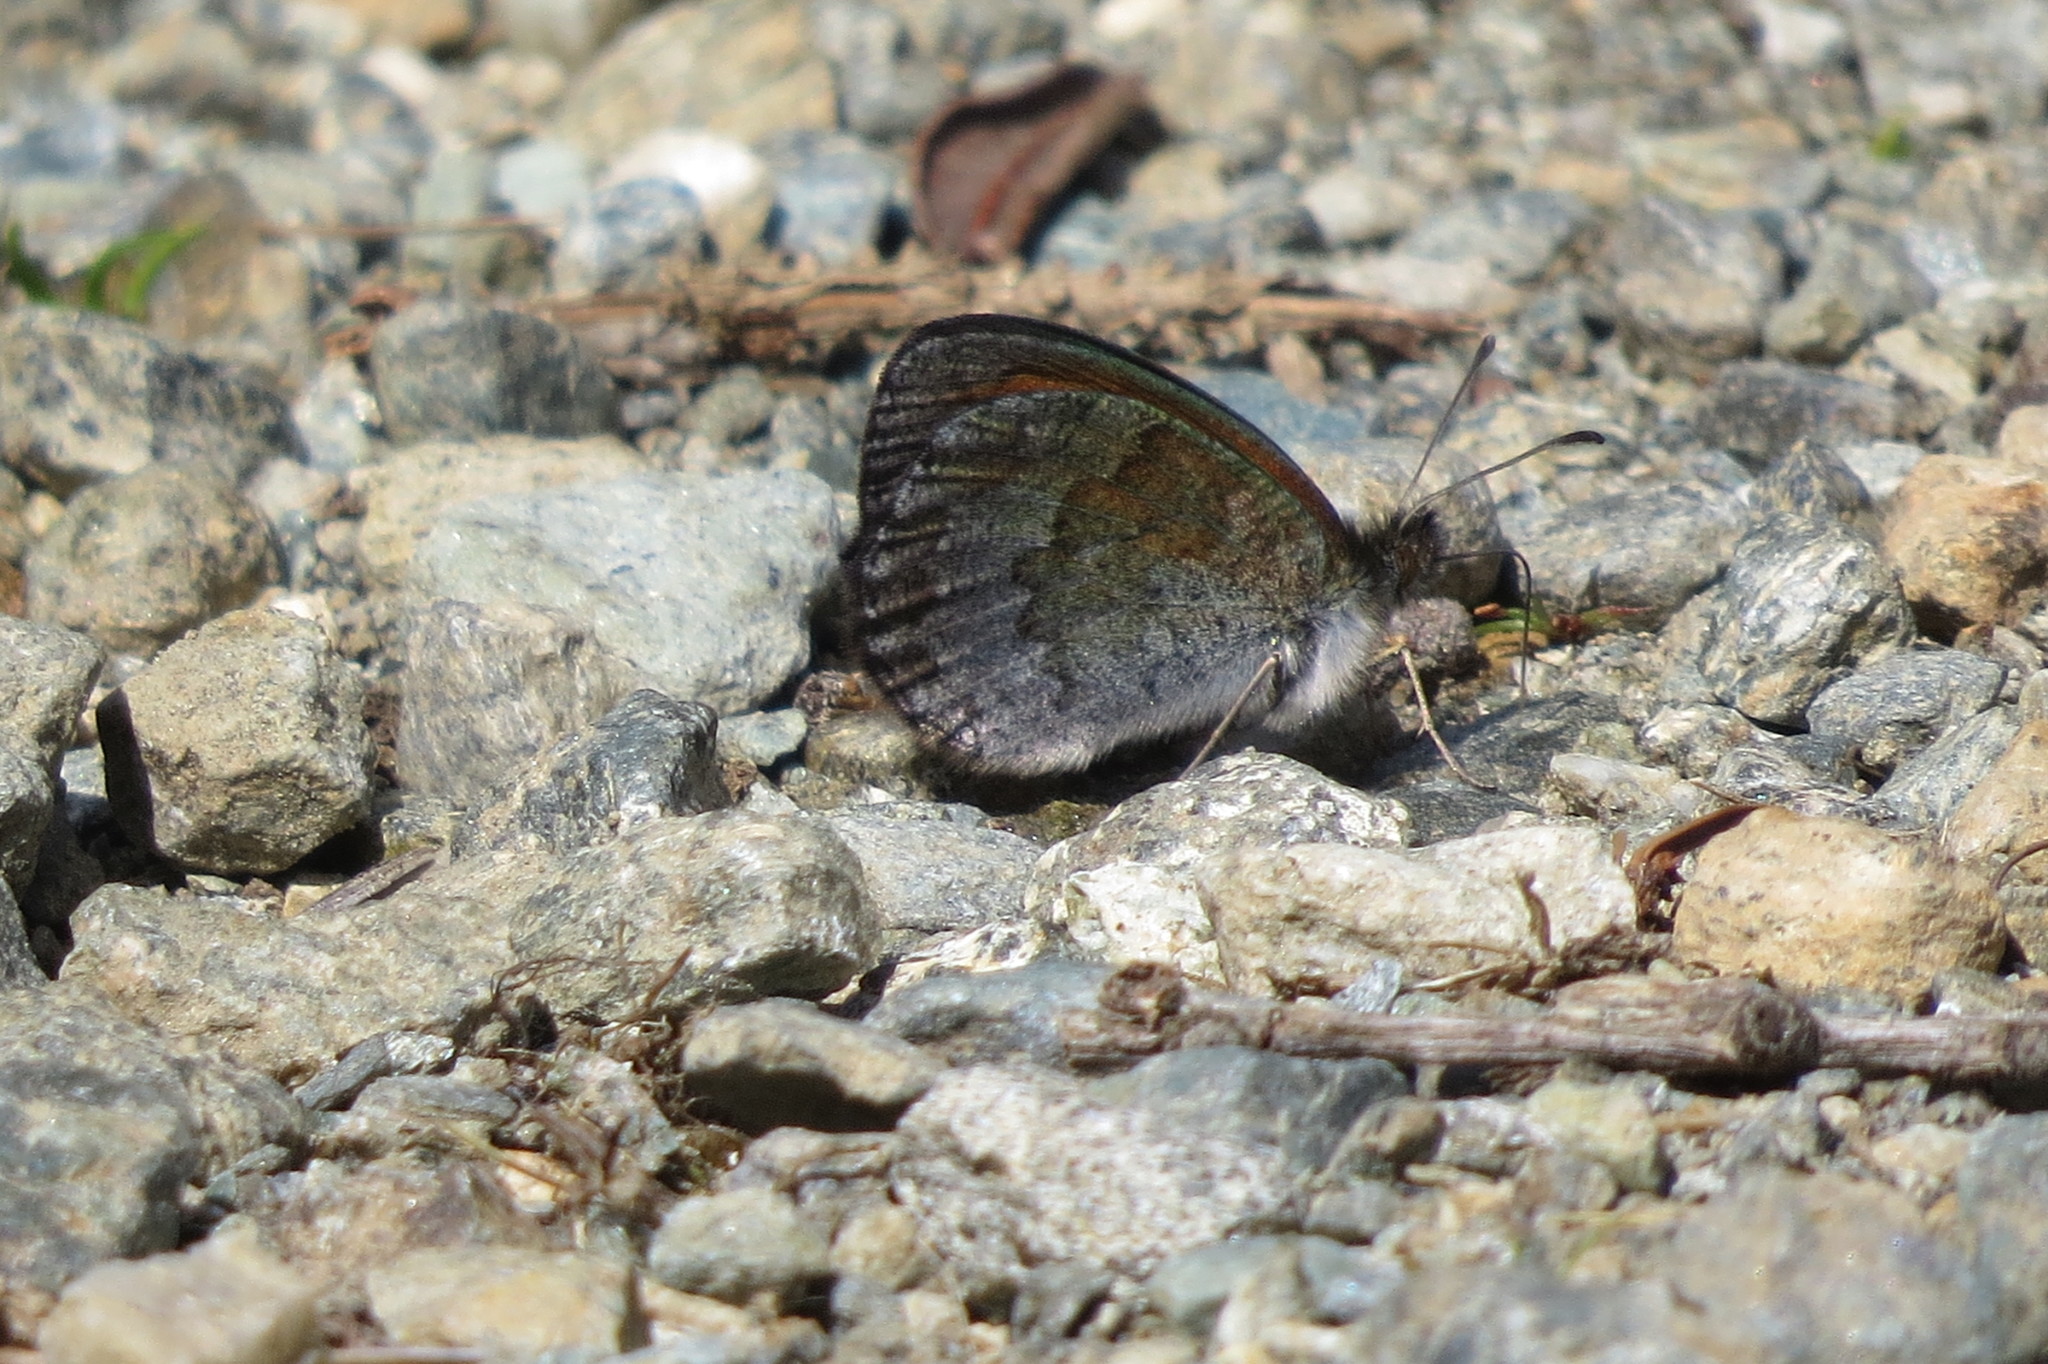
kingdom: Animalia
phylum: Arthropoda
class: Insecta
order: Lepidoptera
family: Nymphalidae
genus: Erebia
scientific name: Erebia tyndarus
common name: Swiss brassy ringlet
